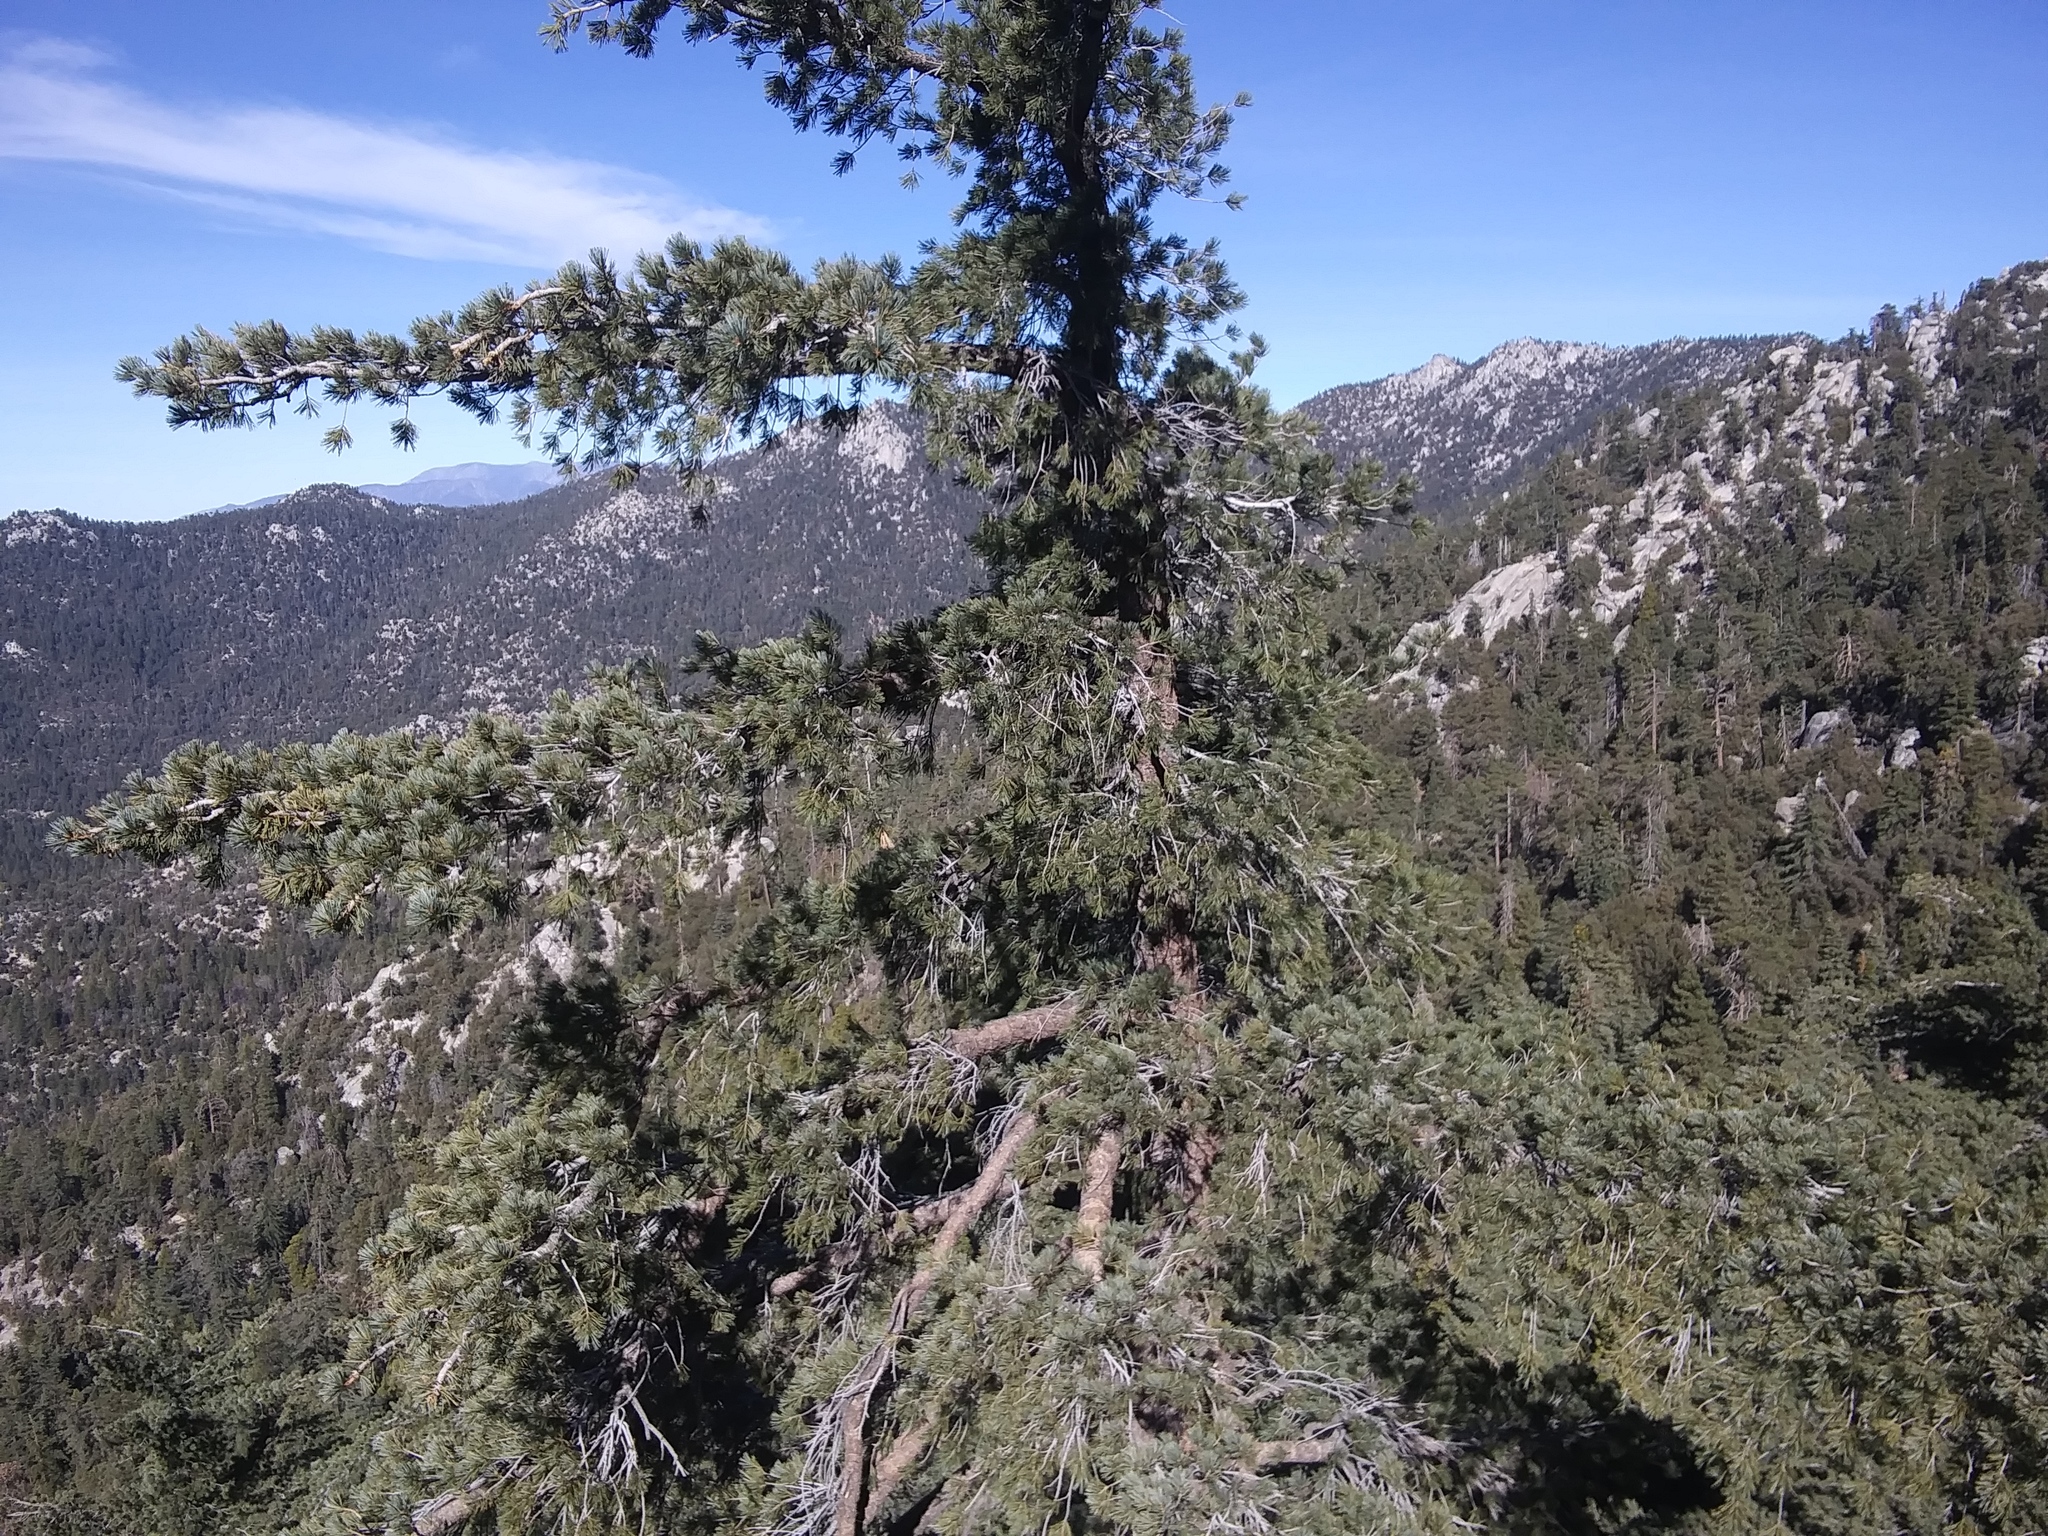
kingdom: Plantae
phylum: Tracheophyta
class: Pinopsida
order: Pinales
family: Pinaceae
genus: Pinus
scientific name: Pinus lambertiana
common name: Sugar pine
